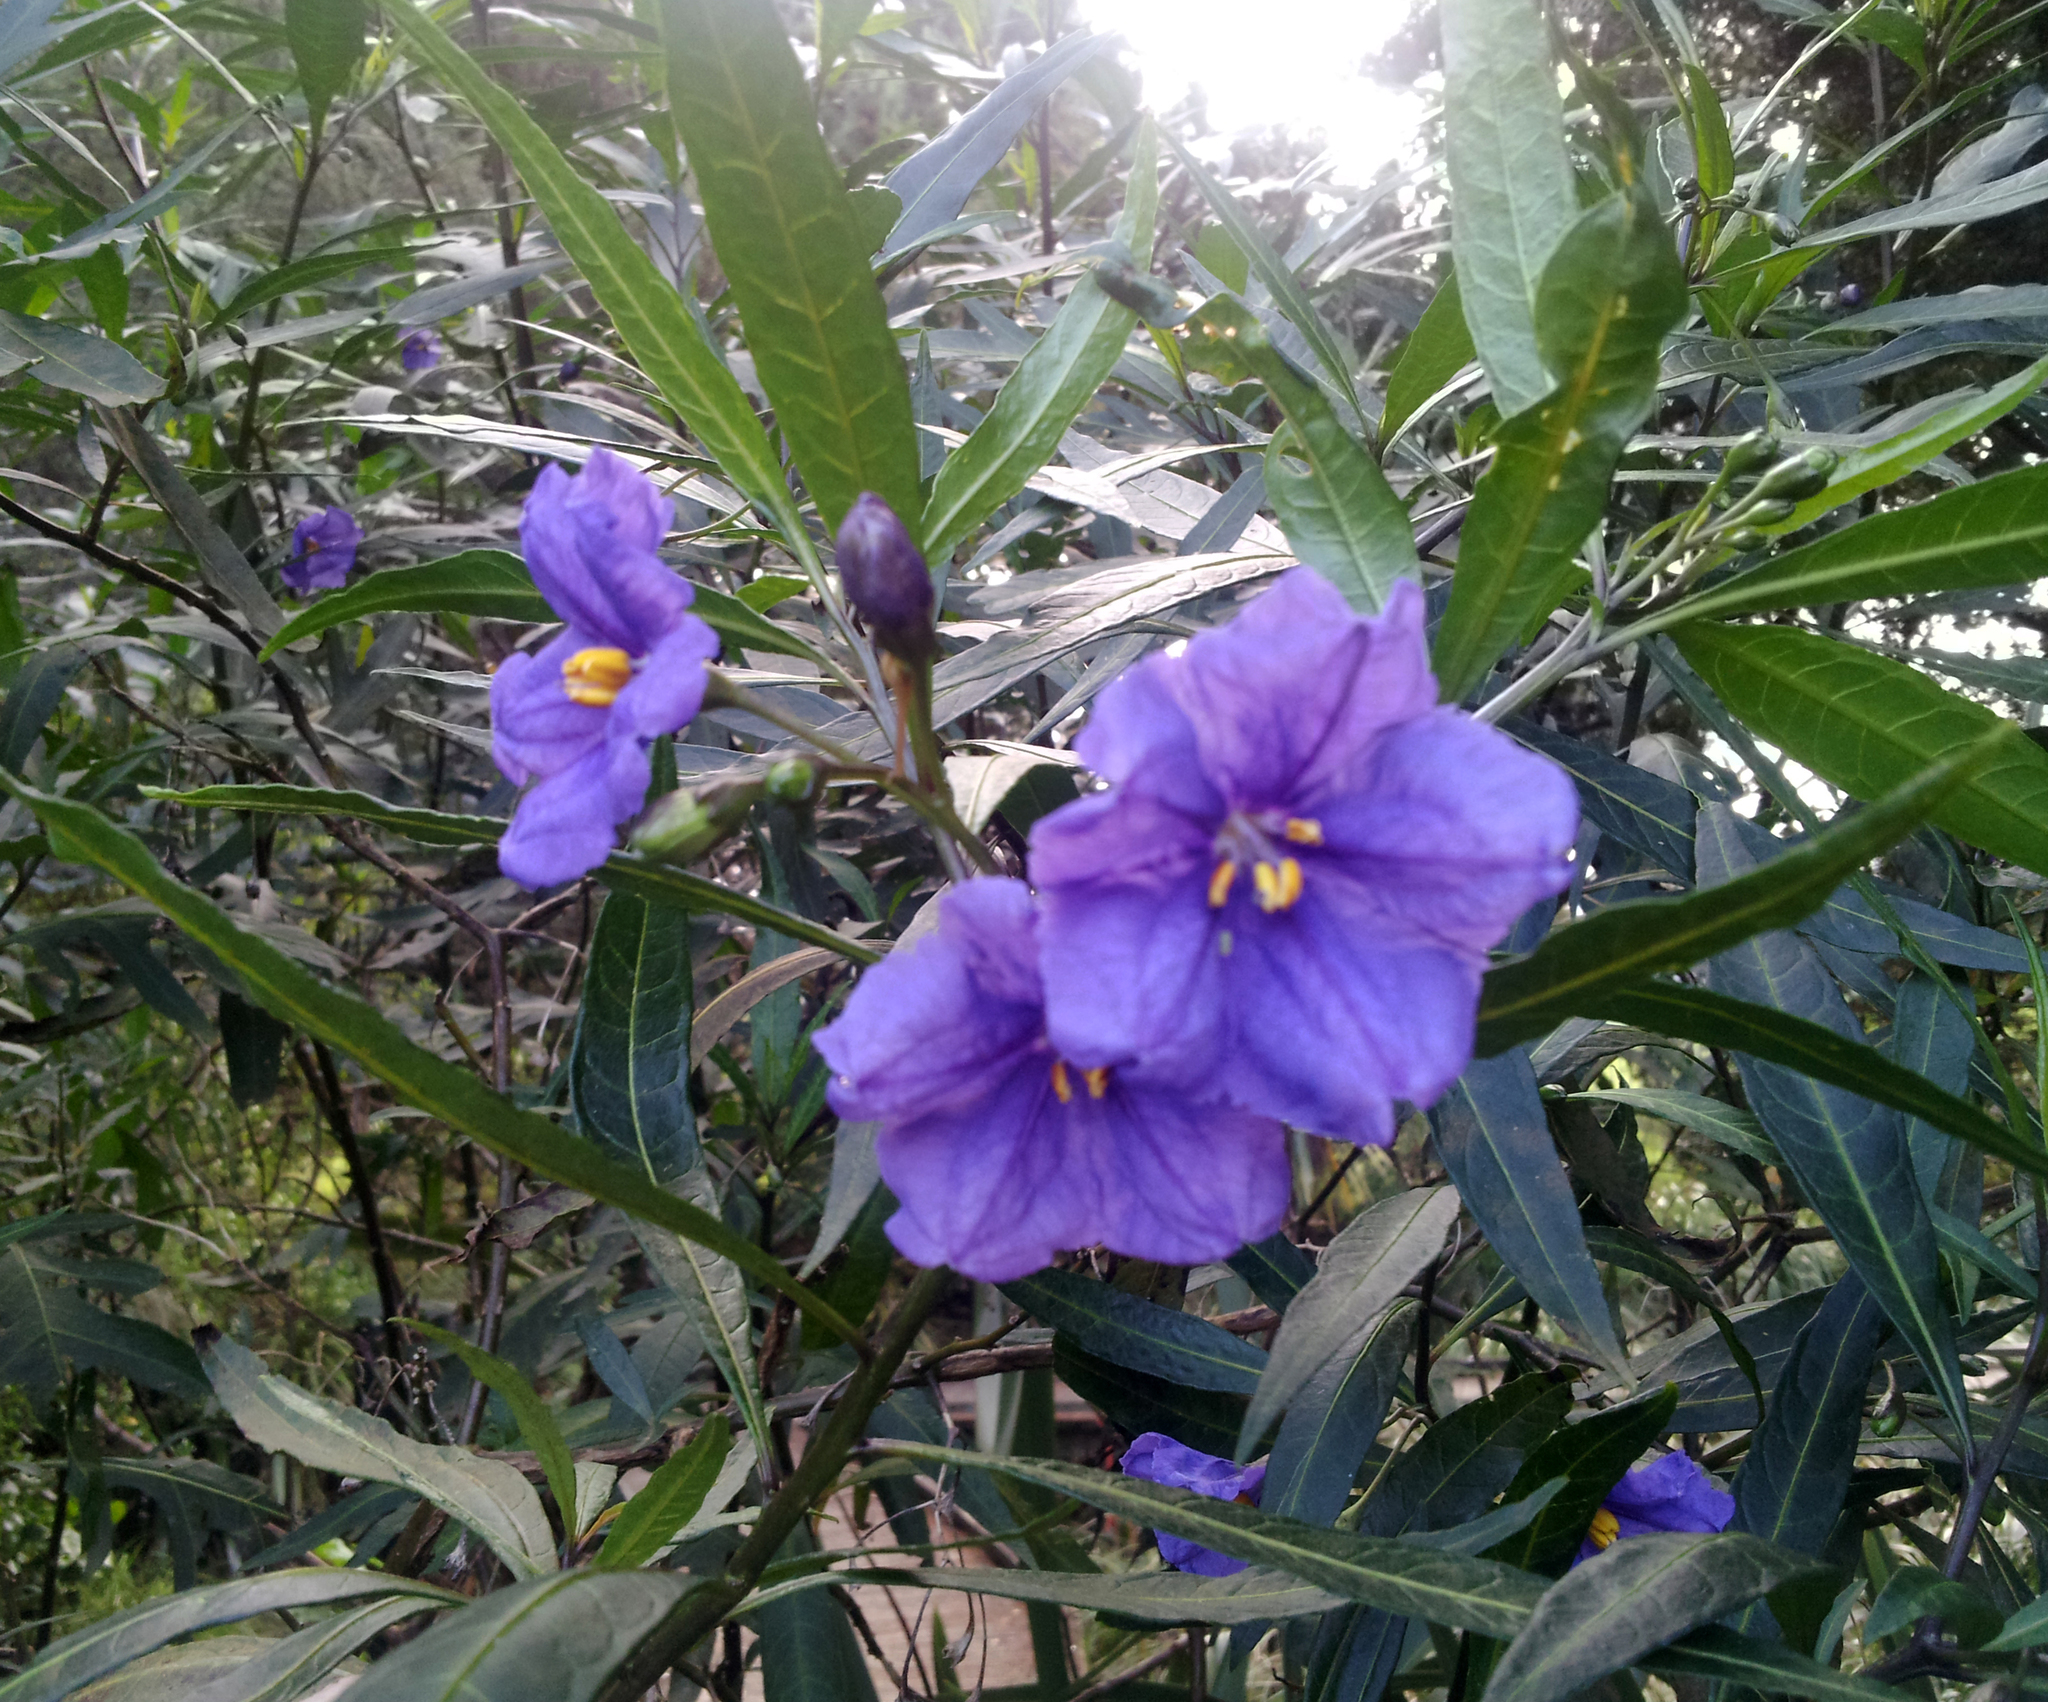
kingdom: Plantae
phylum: Tracheophyta
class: Magnoliopsida
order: Solanales
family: Solanaceae
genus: Solanum
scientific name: Solanum laciniatum
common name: Kangaroo-apple
